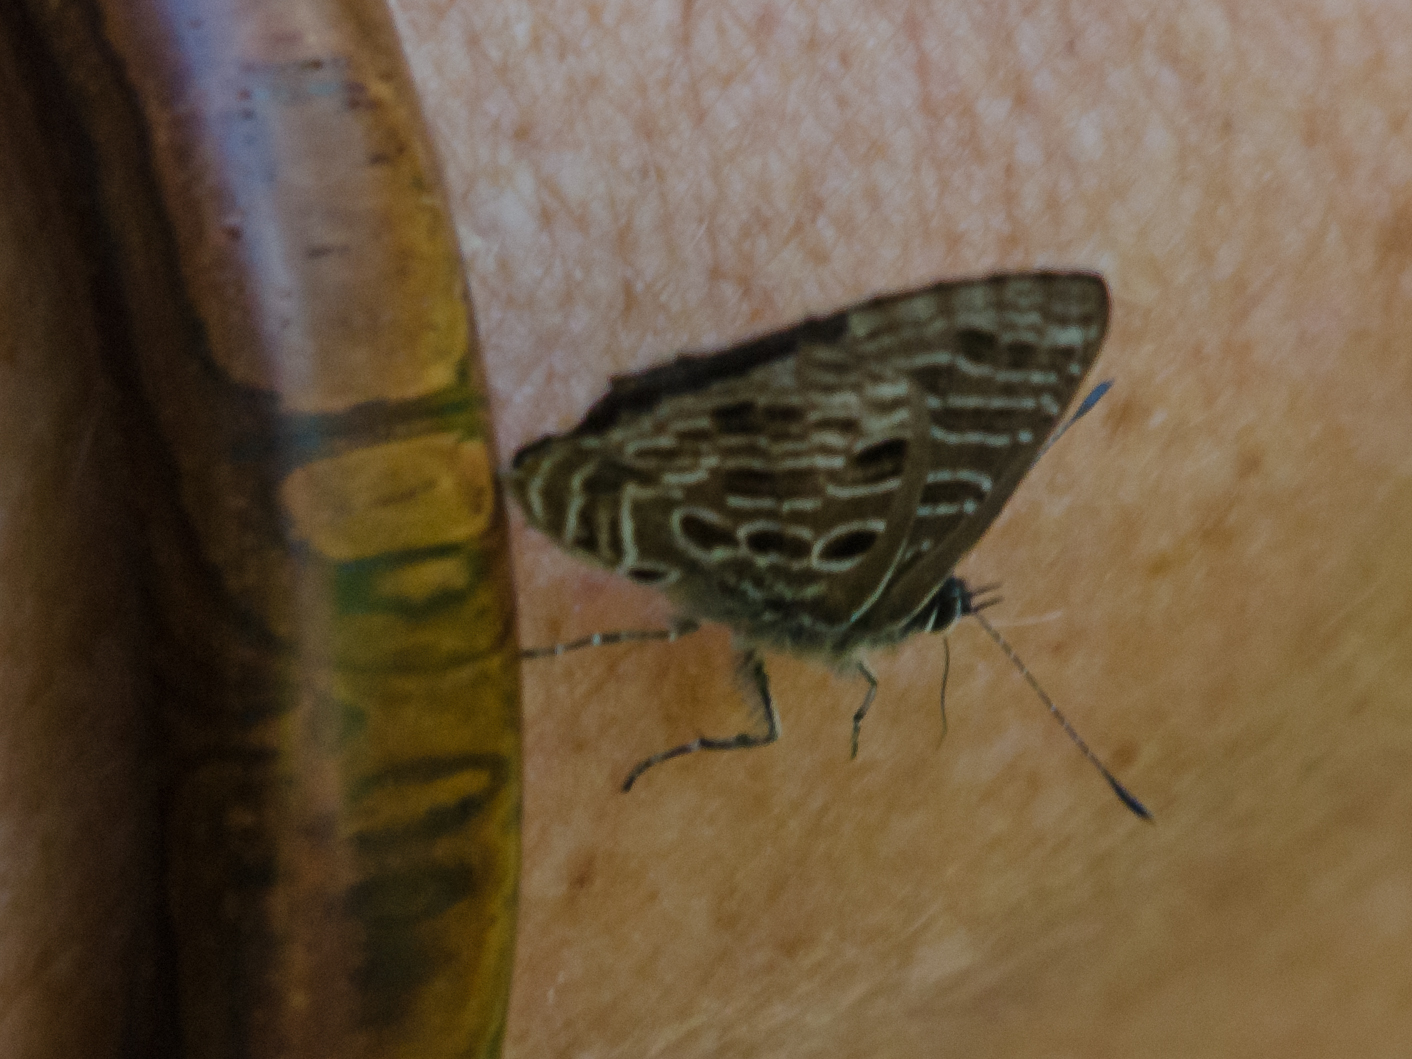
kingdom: Animalia
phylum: Arthropoda
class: Insecta
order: Lepidoptera
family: Lycaenidae
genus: Anthene
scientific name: Anthene larydas
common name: Forest hairtail
